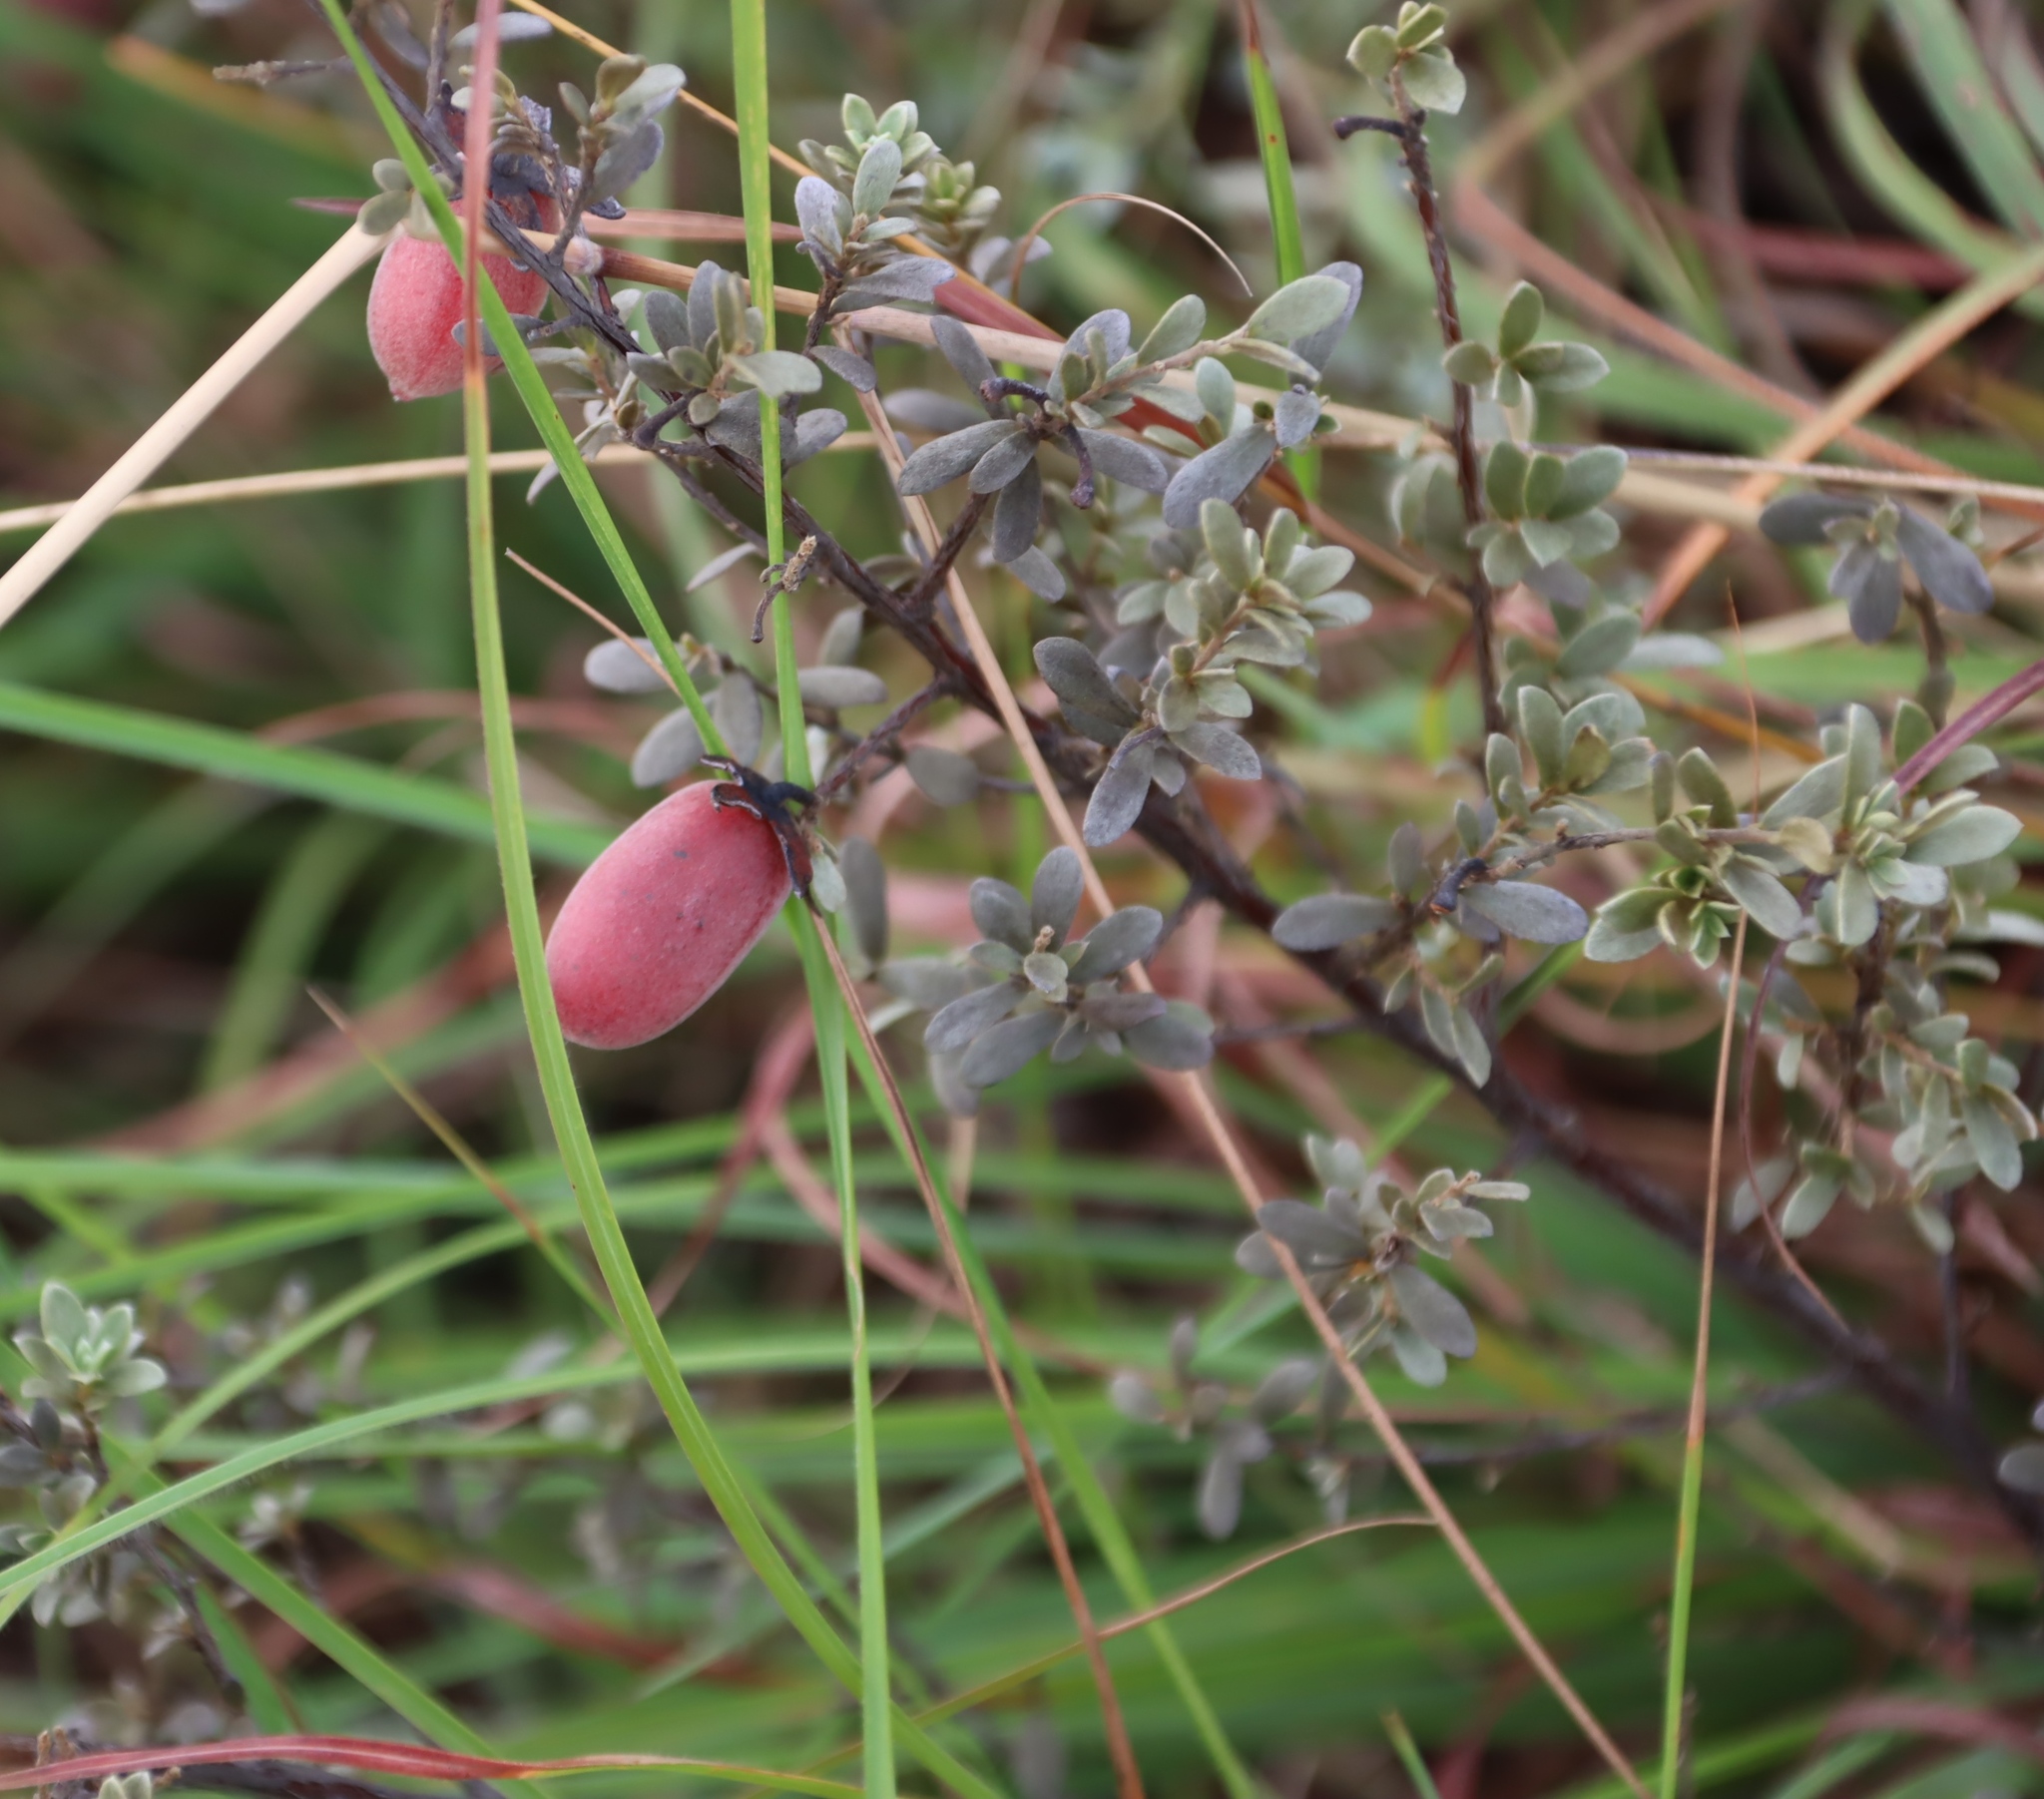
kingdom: Plantae
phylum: Tracheophyta
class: Magnoliopsida
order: Ericales
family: Ebenaceae
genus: Diospyros
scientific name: Diospyros pubescens
